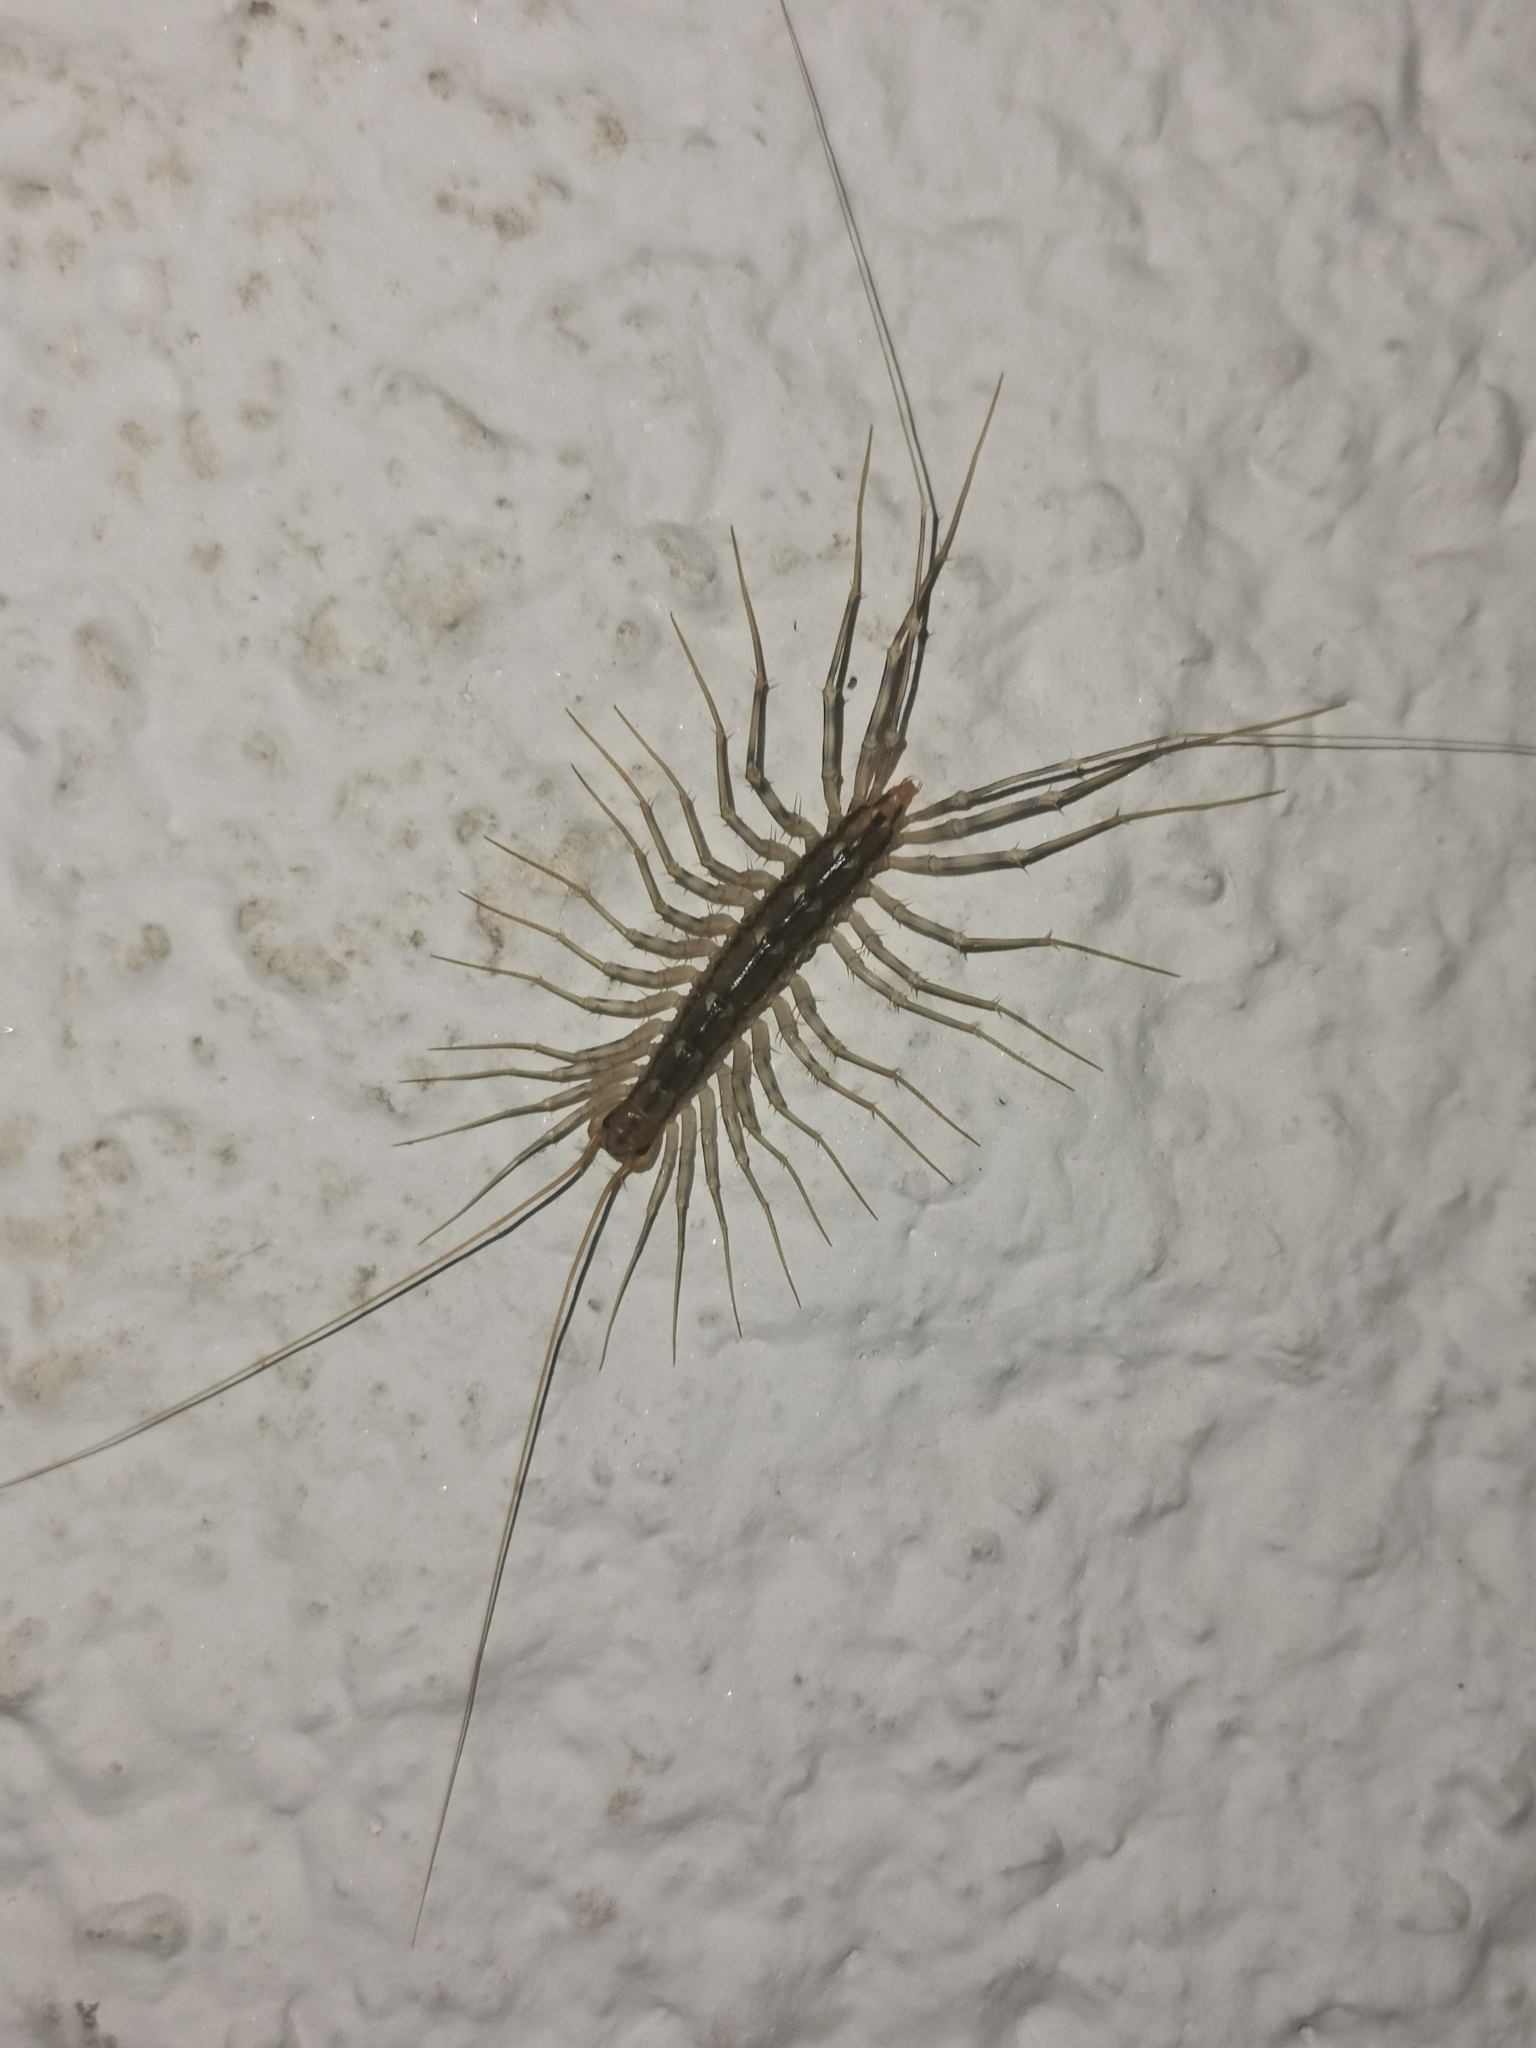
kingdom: Animalia
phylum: Arthropoda
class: Chilopoda
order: Scutigeromorpha
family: Scutigeridae
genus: Scutigera
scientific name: Scutigera coleoptrata
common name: House centipede
